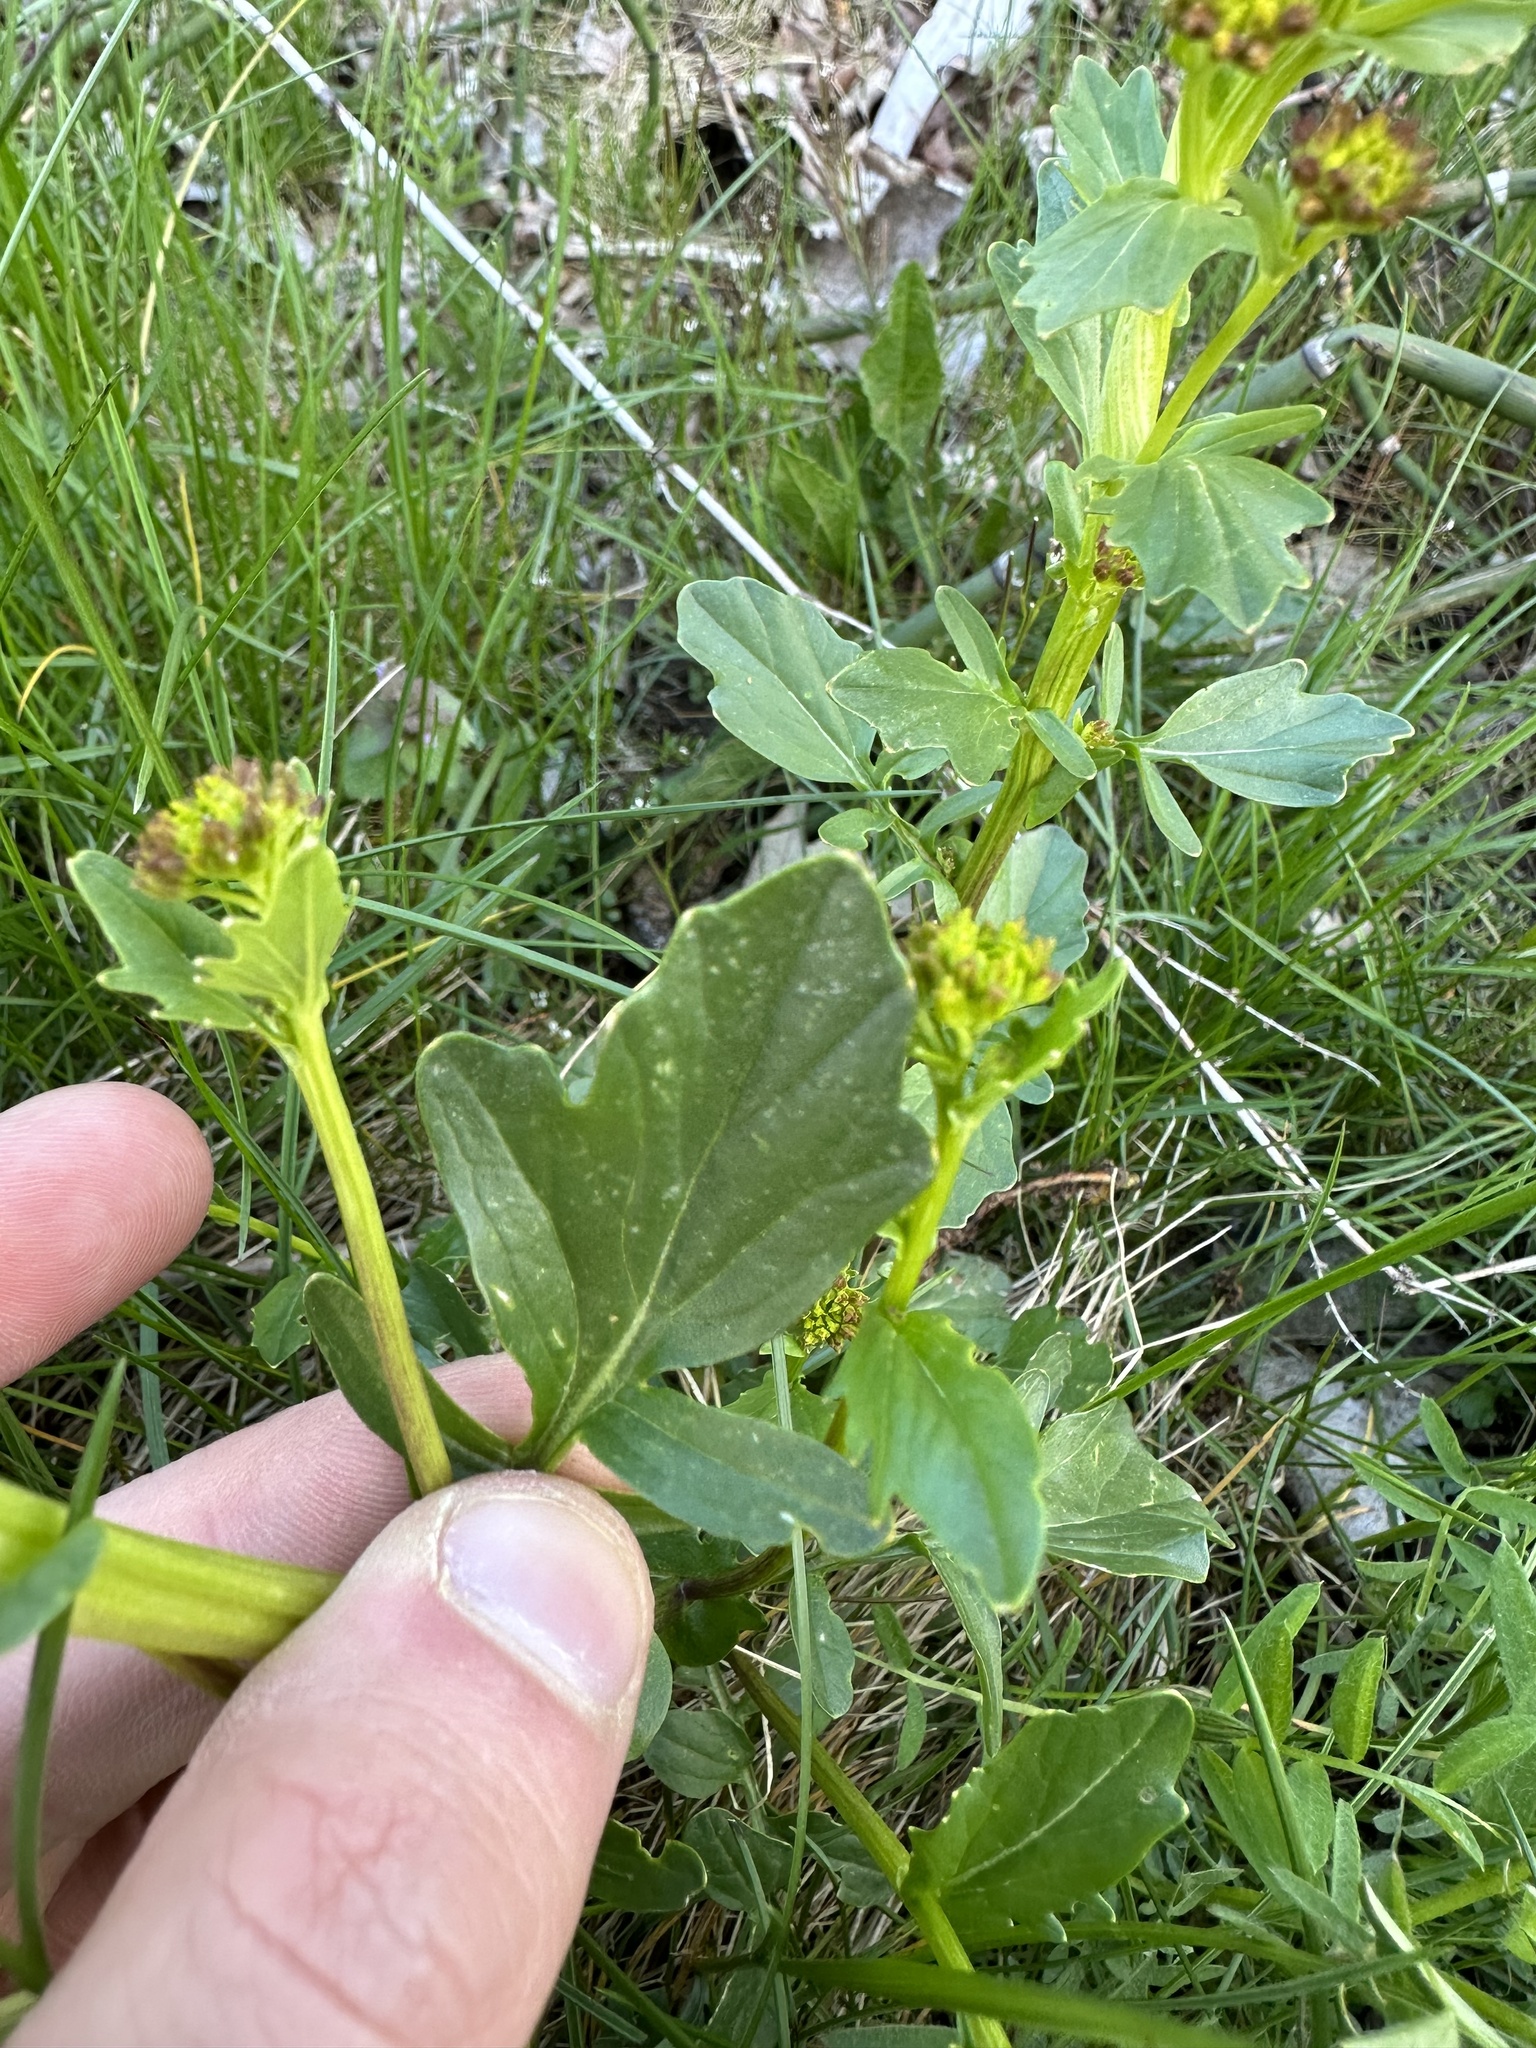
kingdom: Plantae
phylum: Tracheophyta
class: Magnoliopsida
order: Brassicales
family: Brassicaceae
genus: Barbarea
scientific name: Barbarea vulgaris
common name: Cressy-greens
